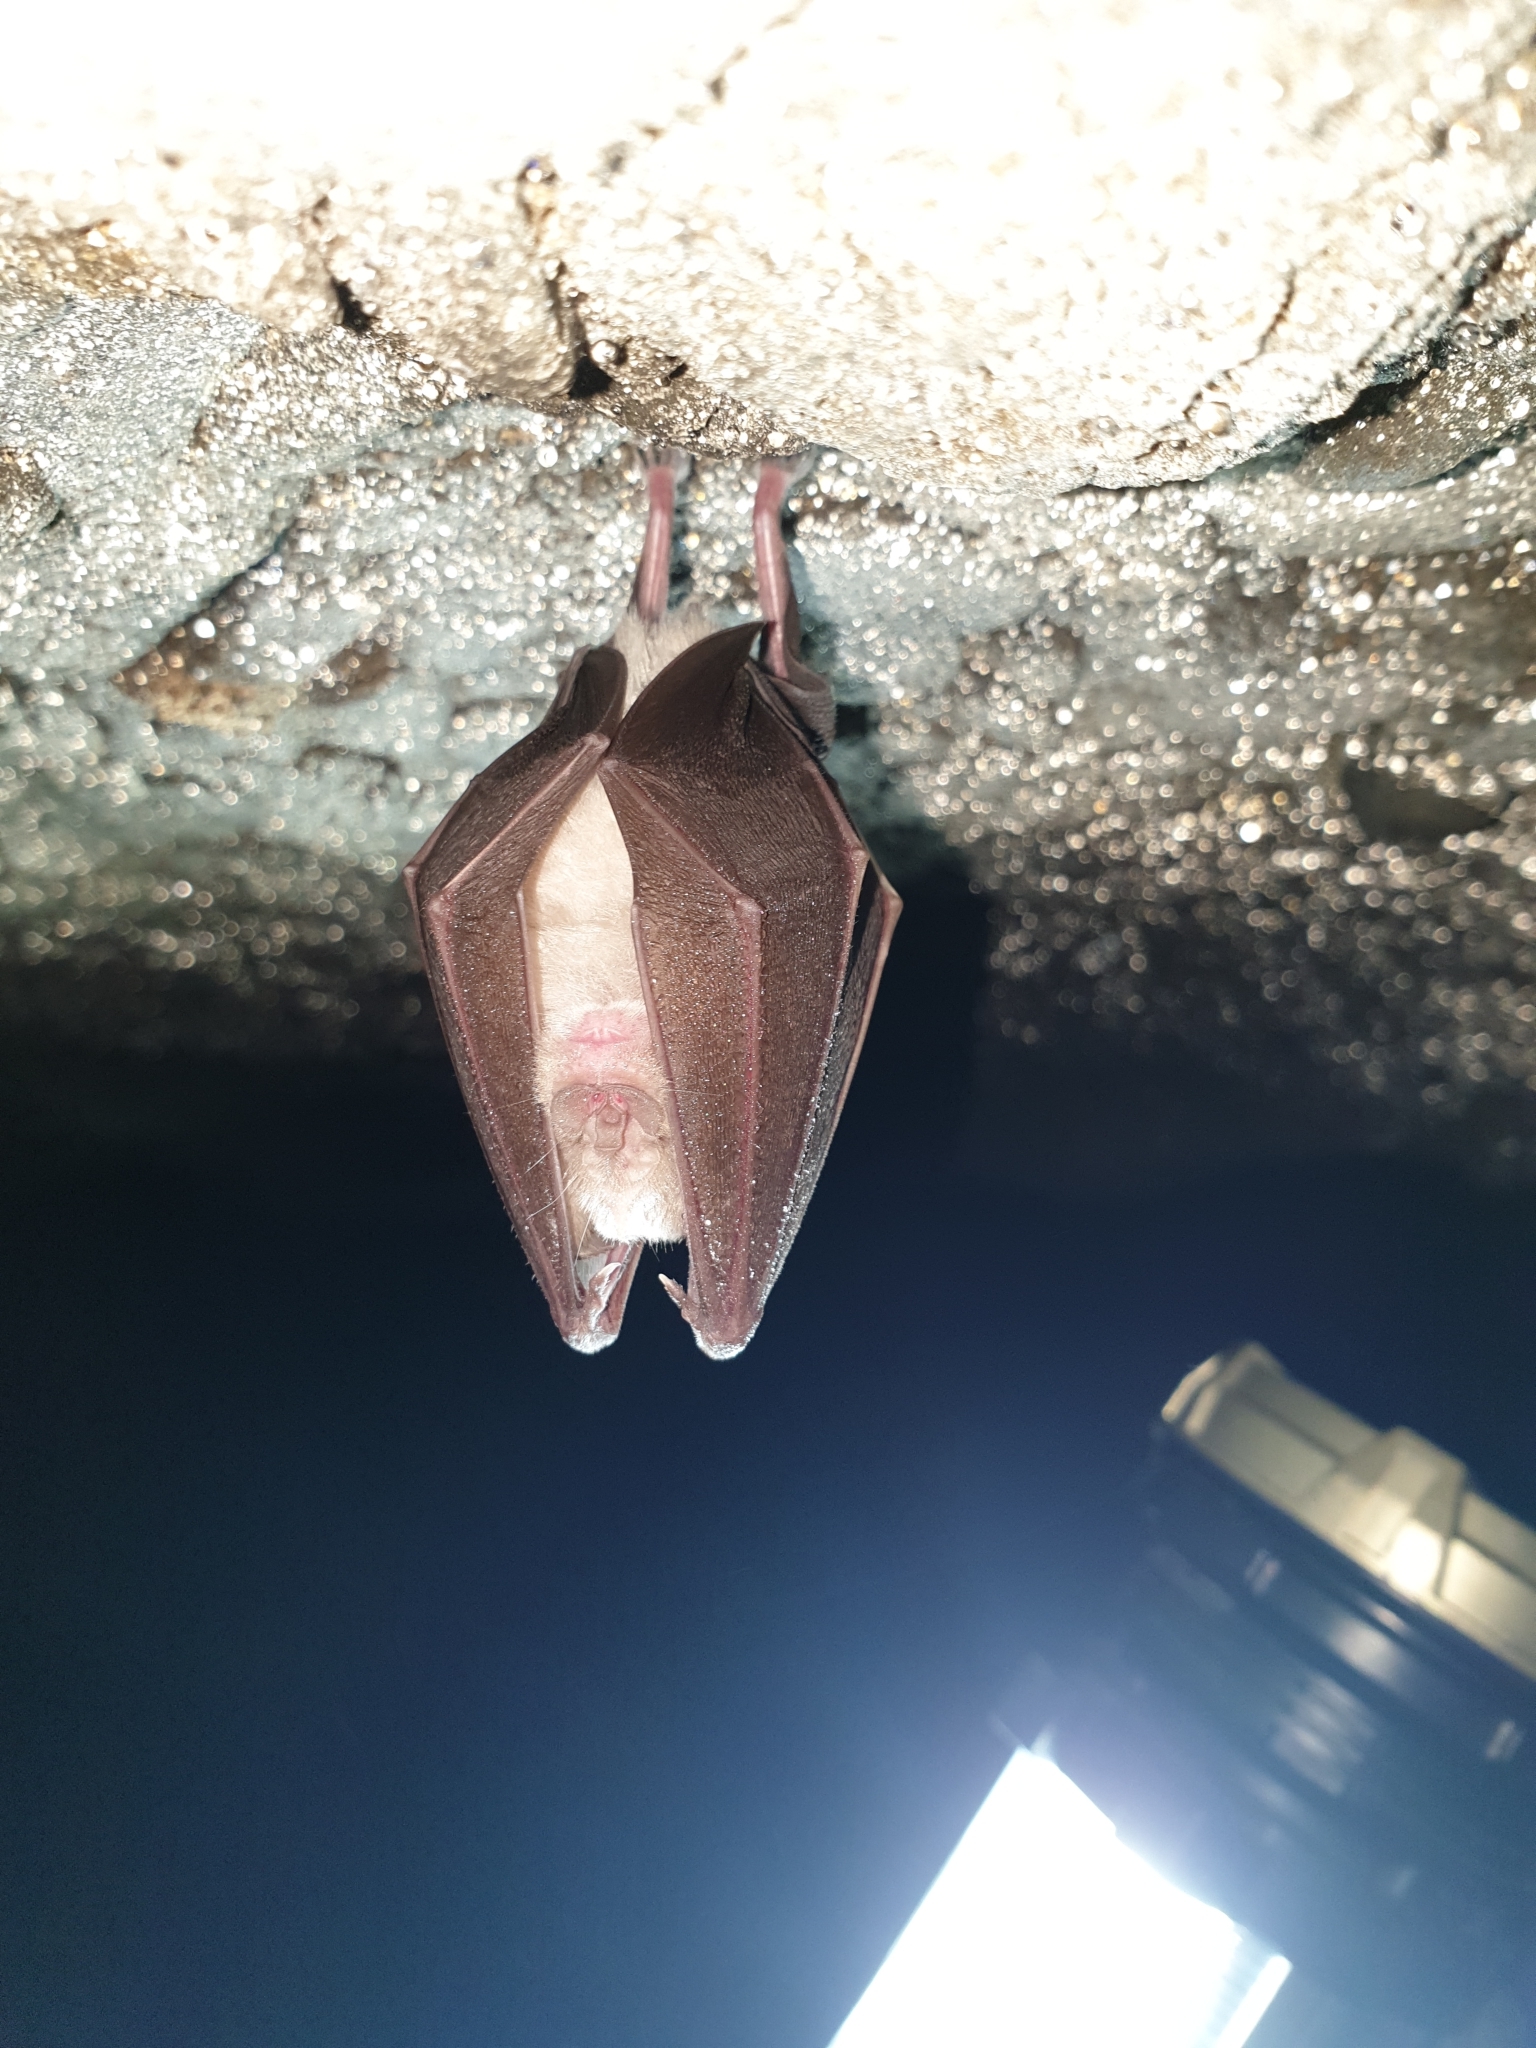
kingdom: Animalia
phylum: Chordata
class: Mammalia
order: Chiroptera
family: Rhinolophidae
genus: Rhinolophus
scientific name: Rhinolophus ferrumequinum
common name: Greater horseshoe bat
